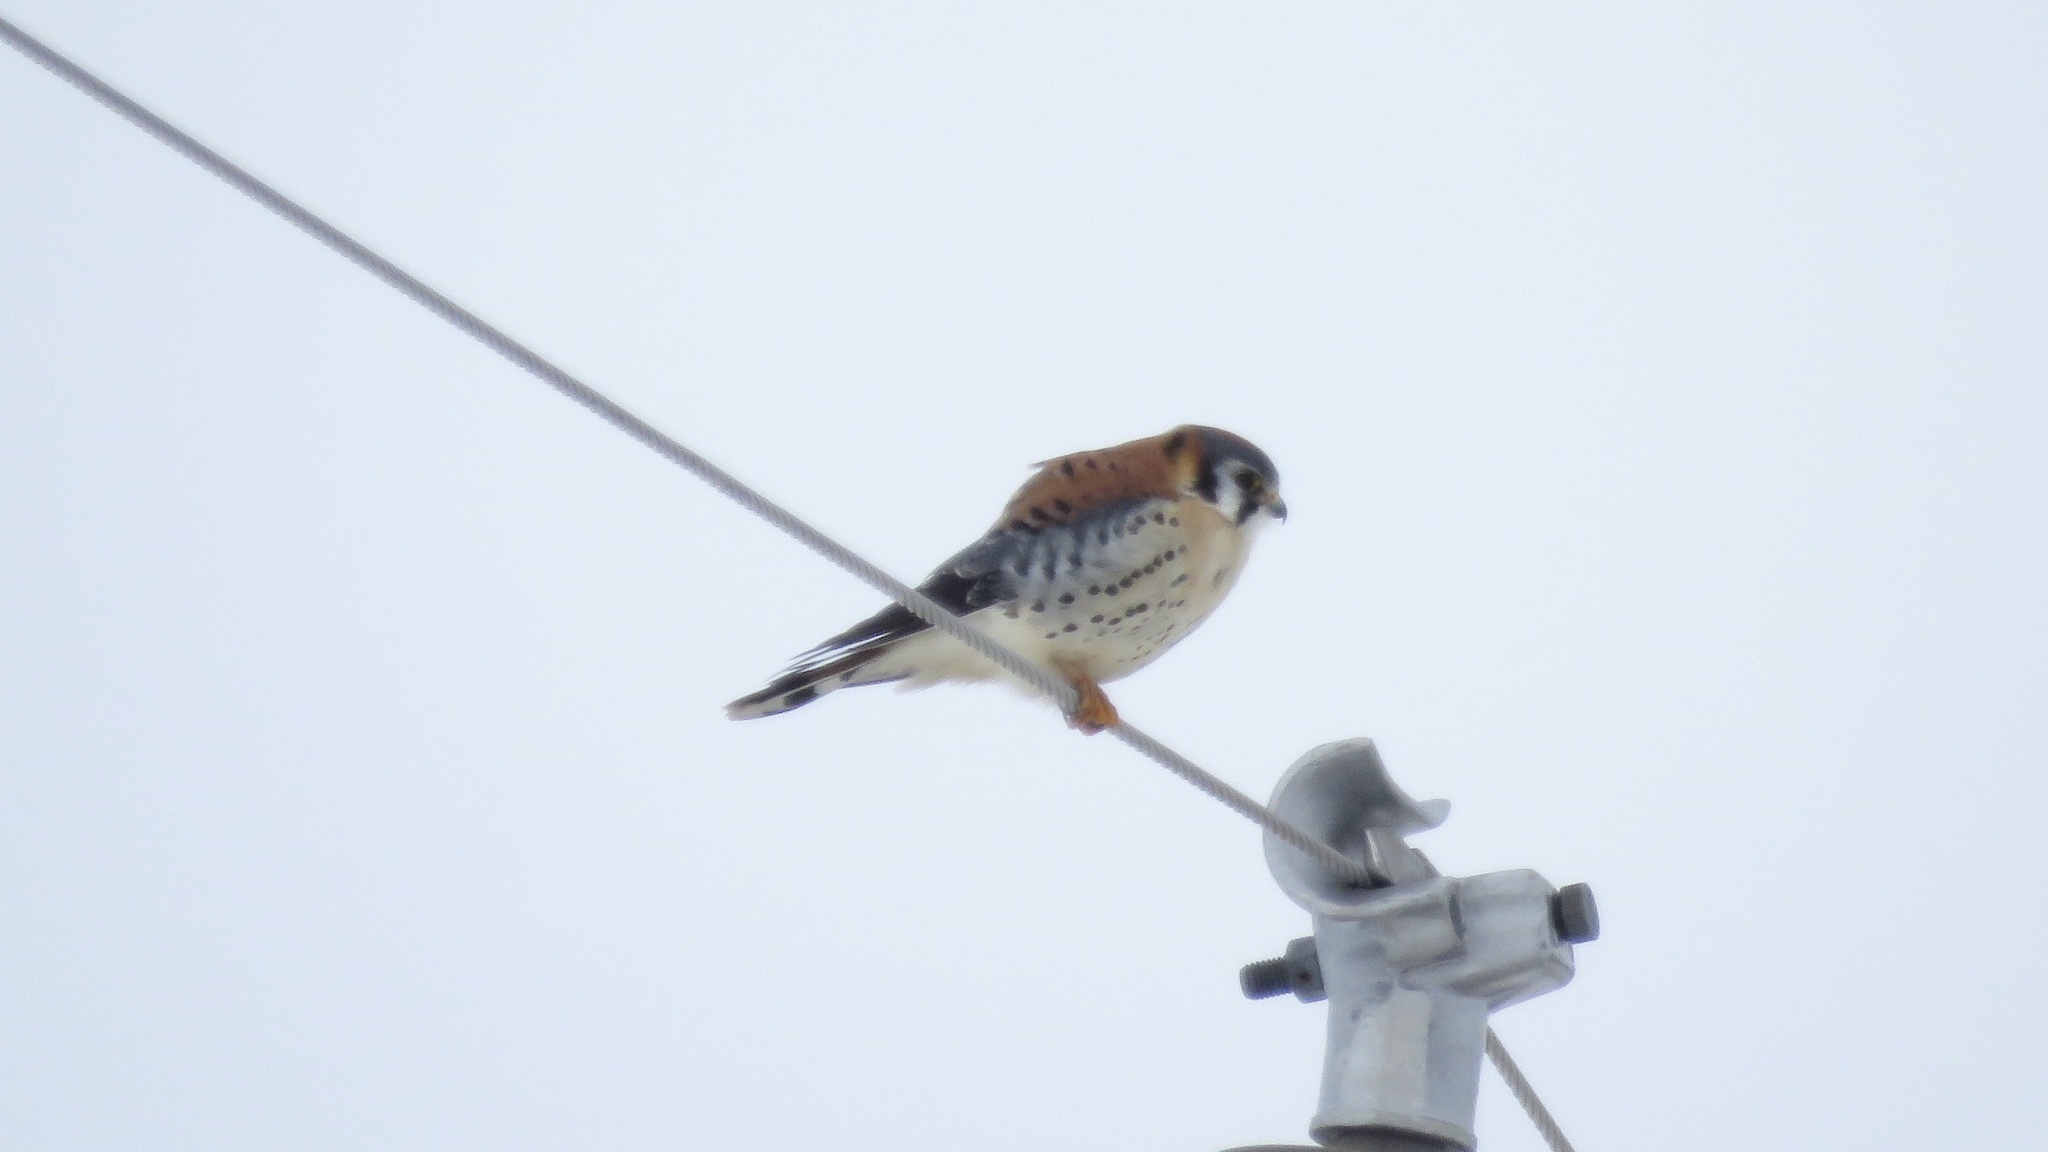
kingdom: Animalia
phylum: Chordata
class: Aves
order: Falconiformes
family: Falconidae
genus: Falco
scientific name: Falco sparverius
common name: American kestrel
